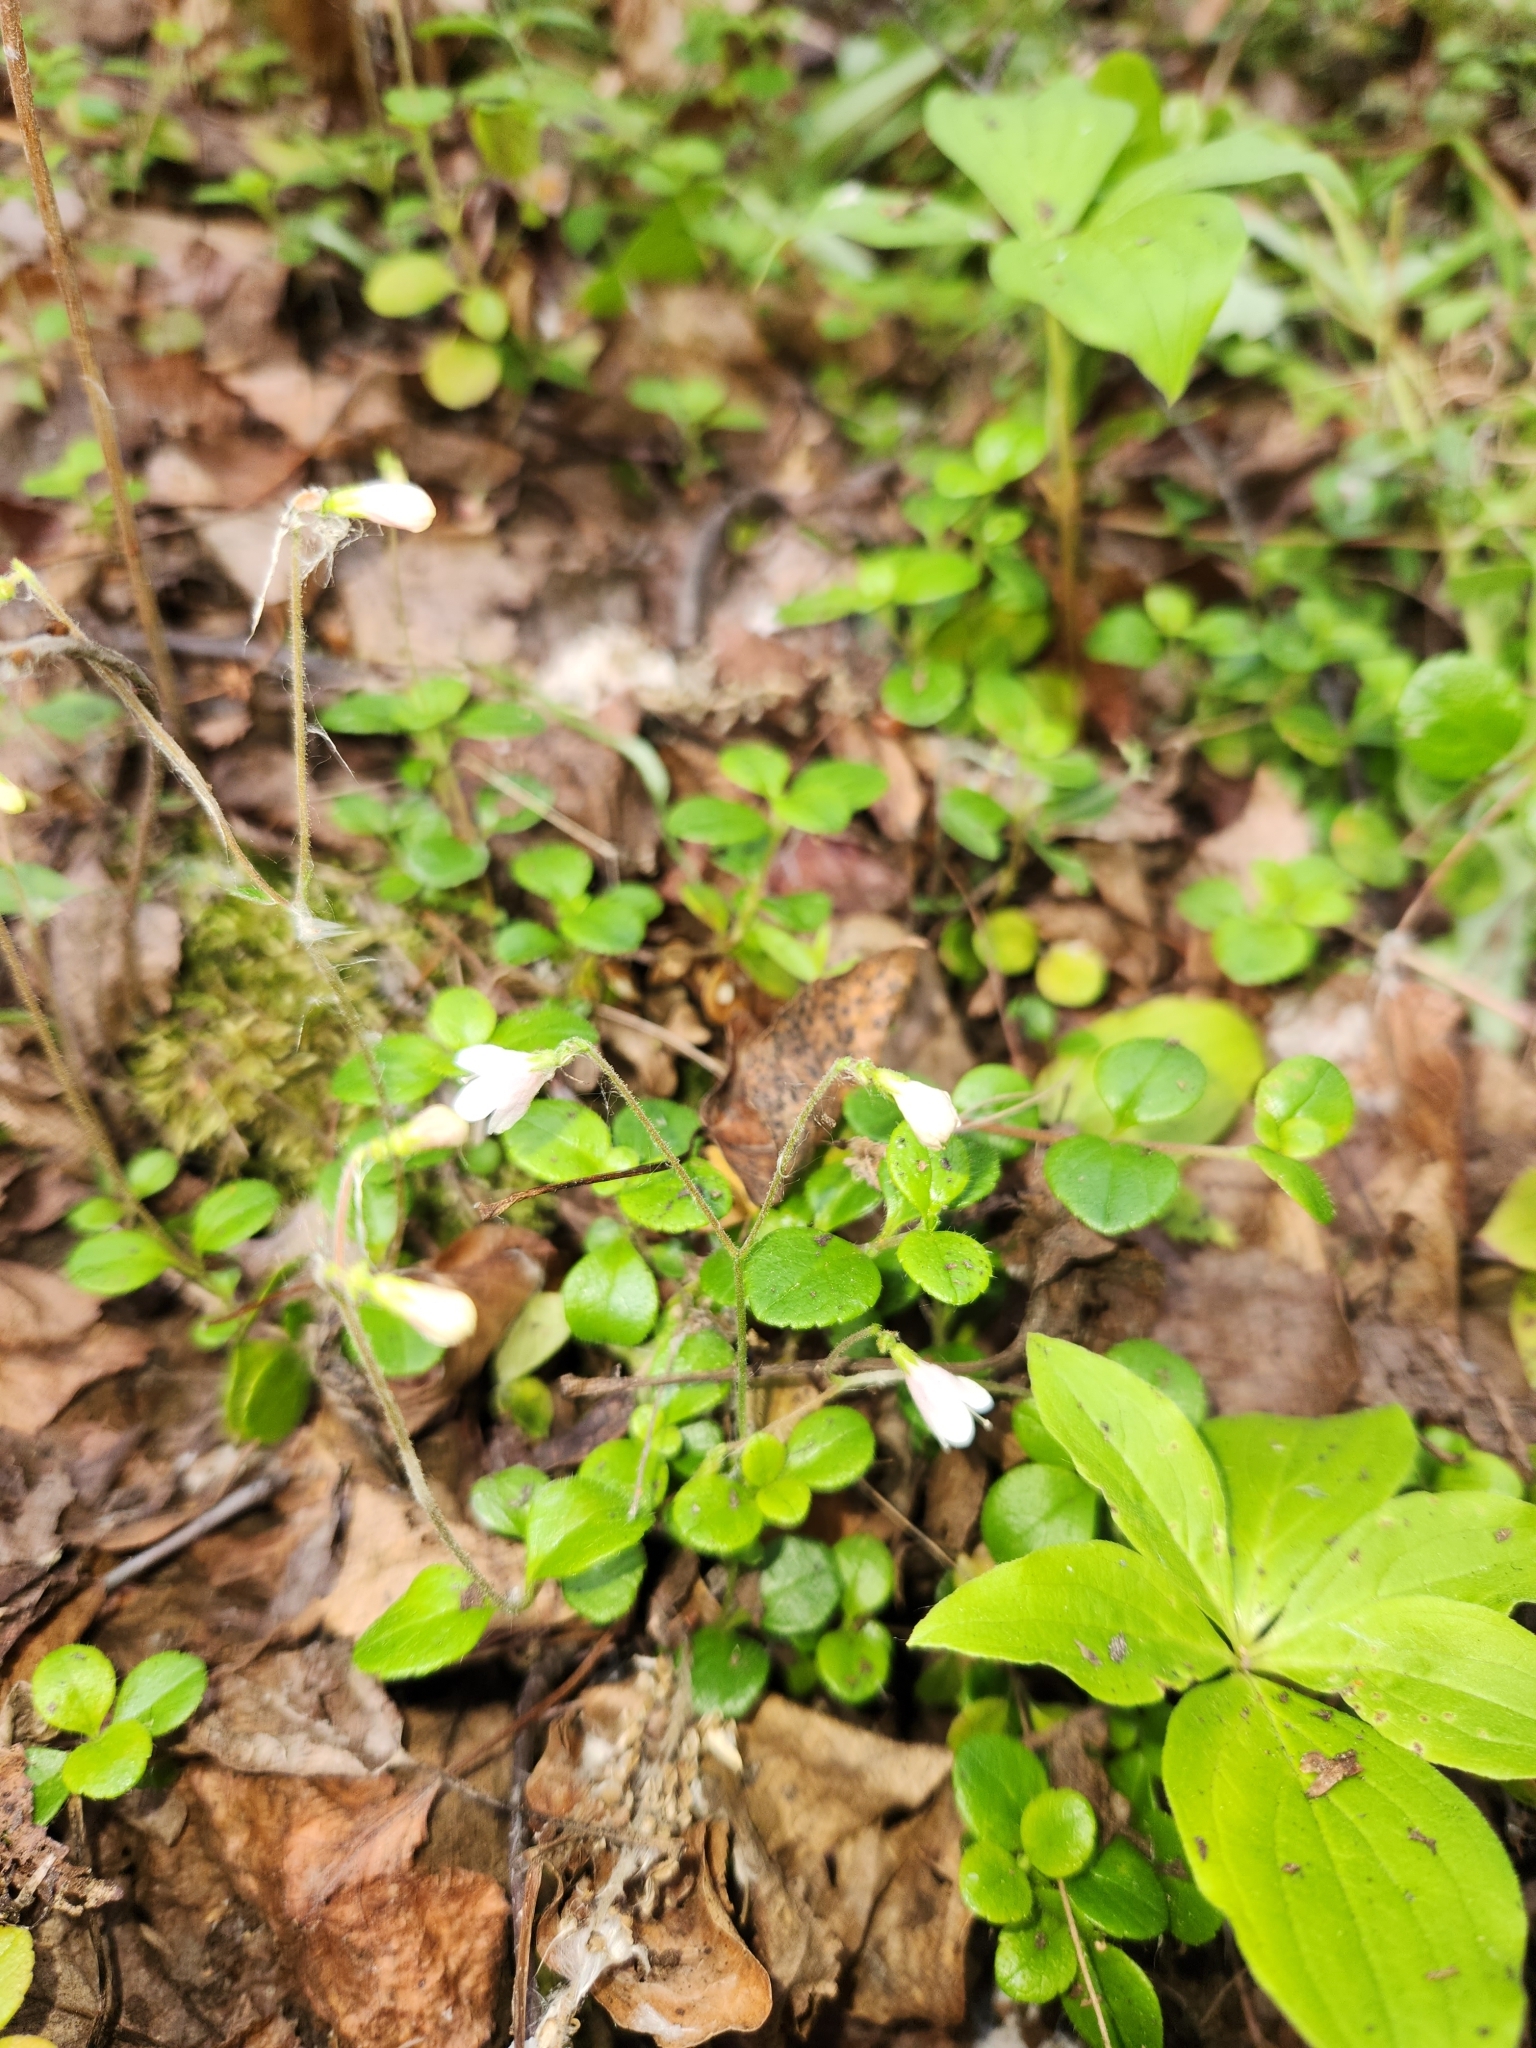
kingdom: Plantae
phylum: Tracheophyta
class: Magnoliopsida
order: Dipsacales
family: Caprifoliaceae
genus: Linnaea
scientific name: Linnaea borealis
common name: Twinflower
